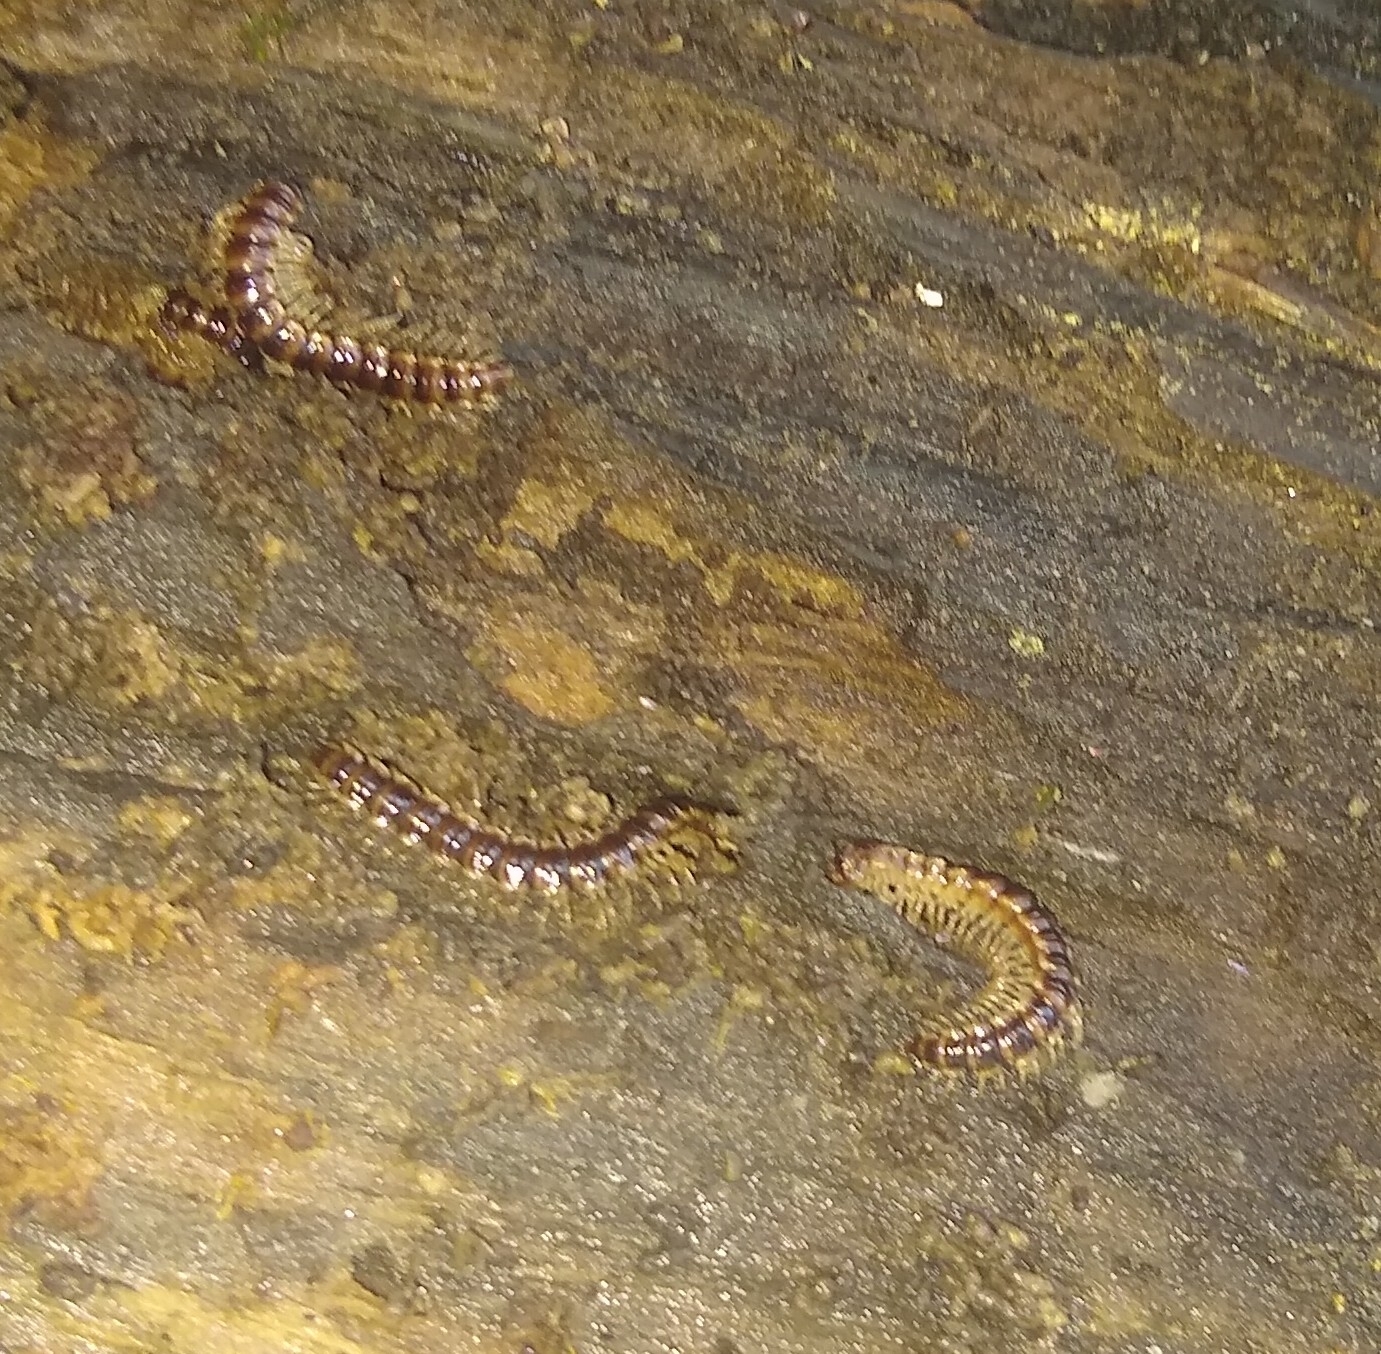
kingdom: Animalia
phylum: Arthropoda
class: Diplopoda
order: Polydesmida
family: Paradoxosomatidae
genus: Oxidus
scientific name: Oxidus gracilis
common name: Greenhouse millipede
